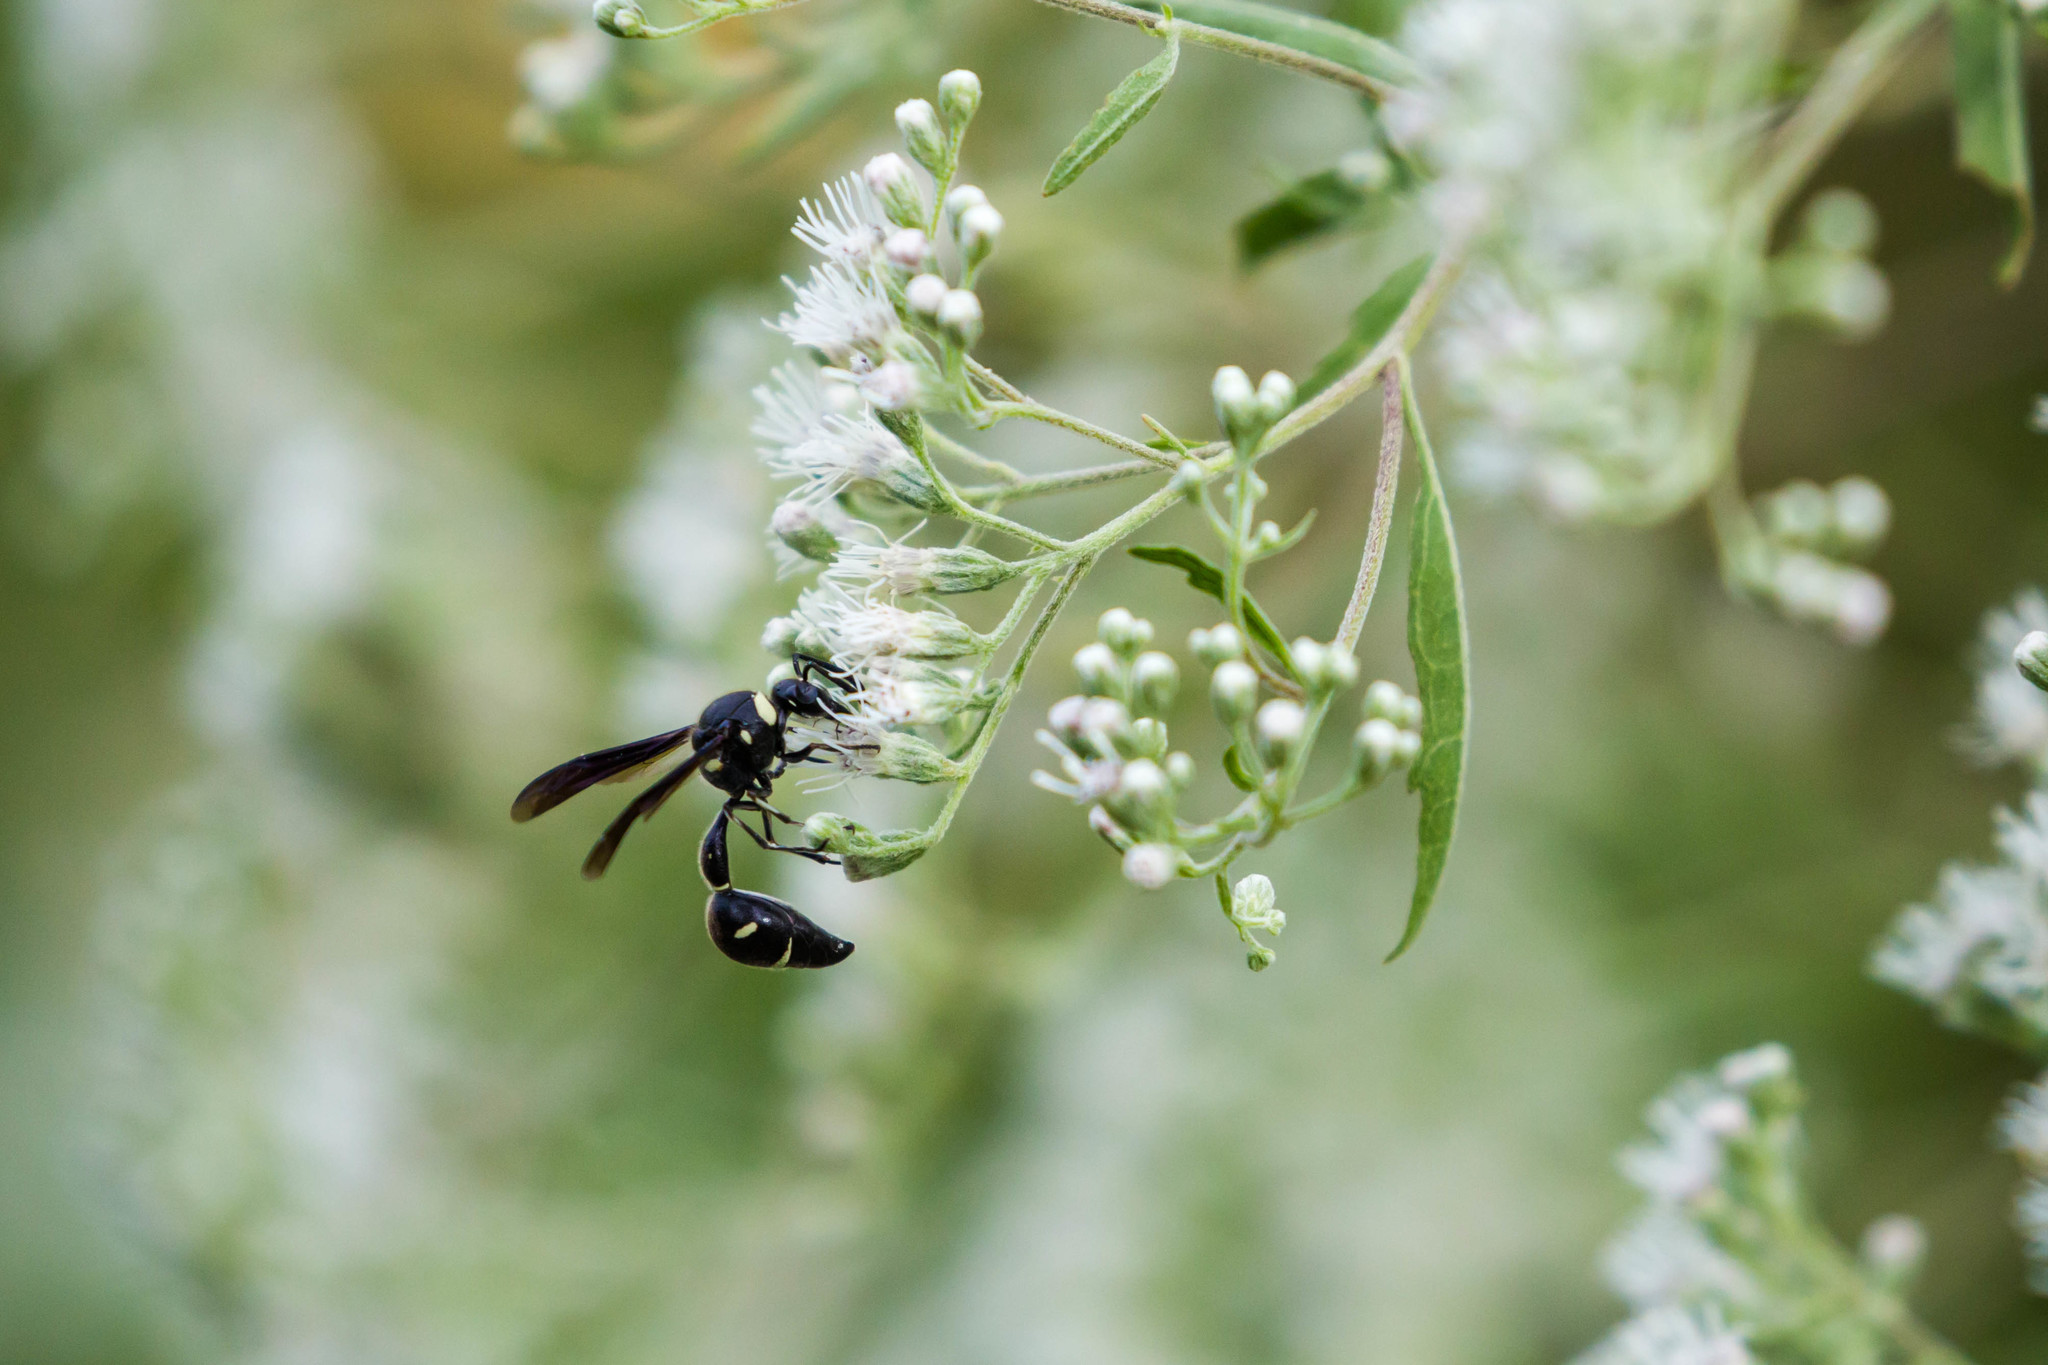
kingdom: Animalia
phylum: Arthropoda
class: Insecta
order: Hymenoptera
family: Vespidae
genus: Eumenes
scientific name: Eumenes fraternus
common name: Fraternal potter wasp
